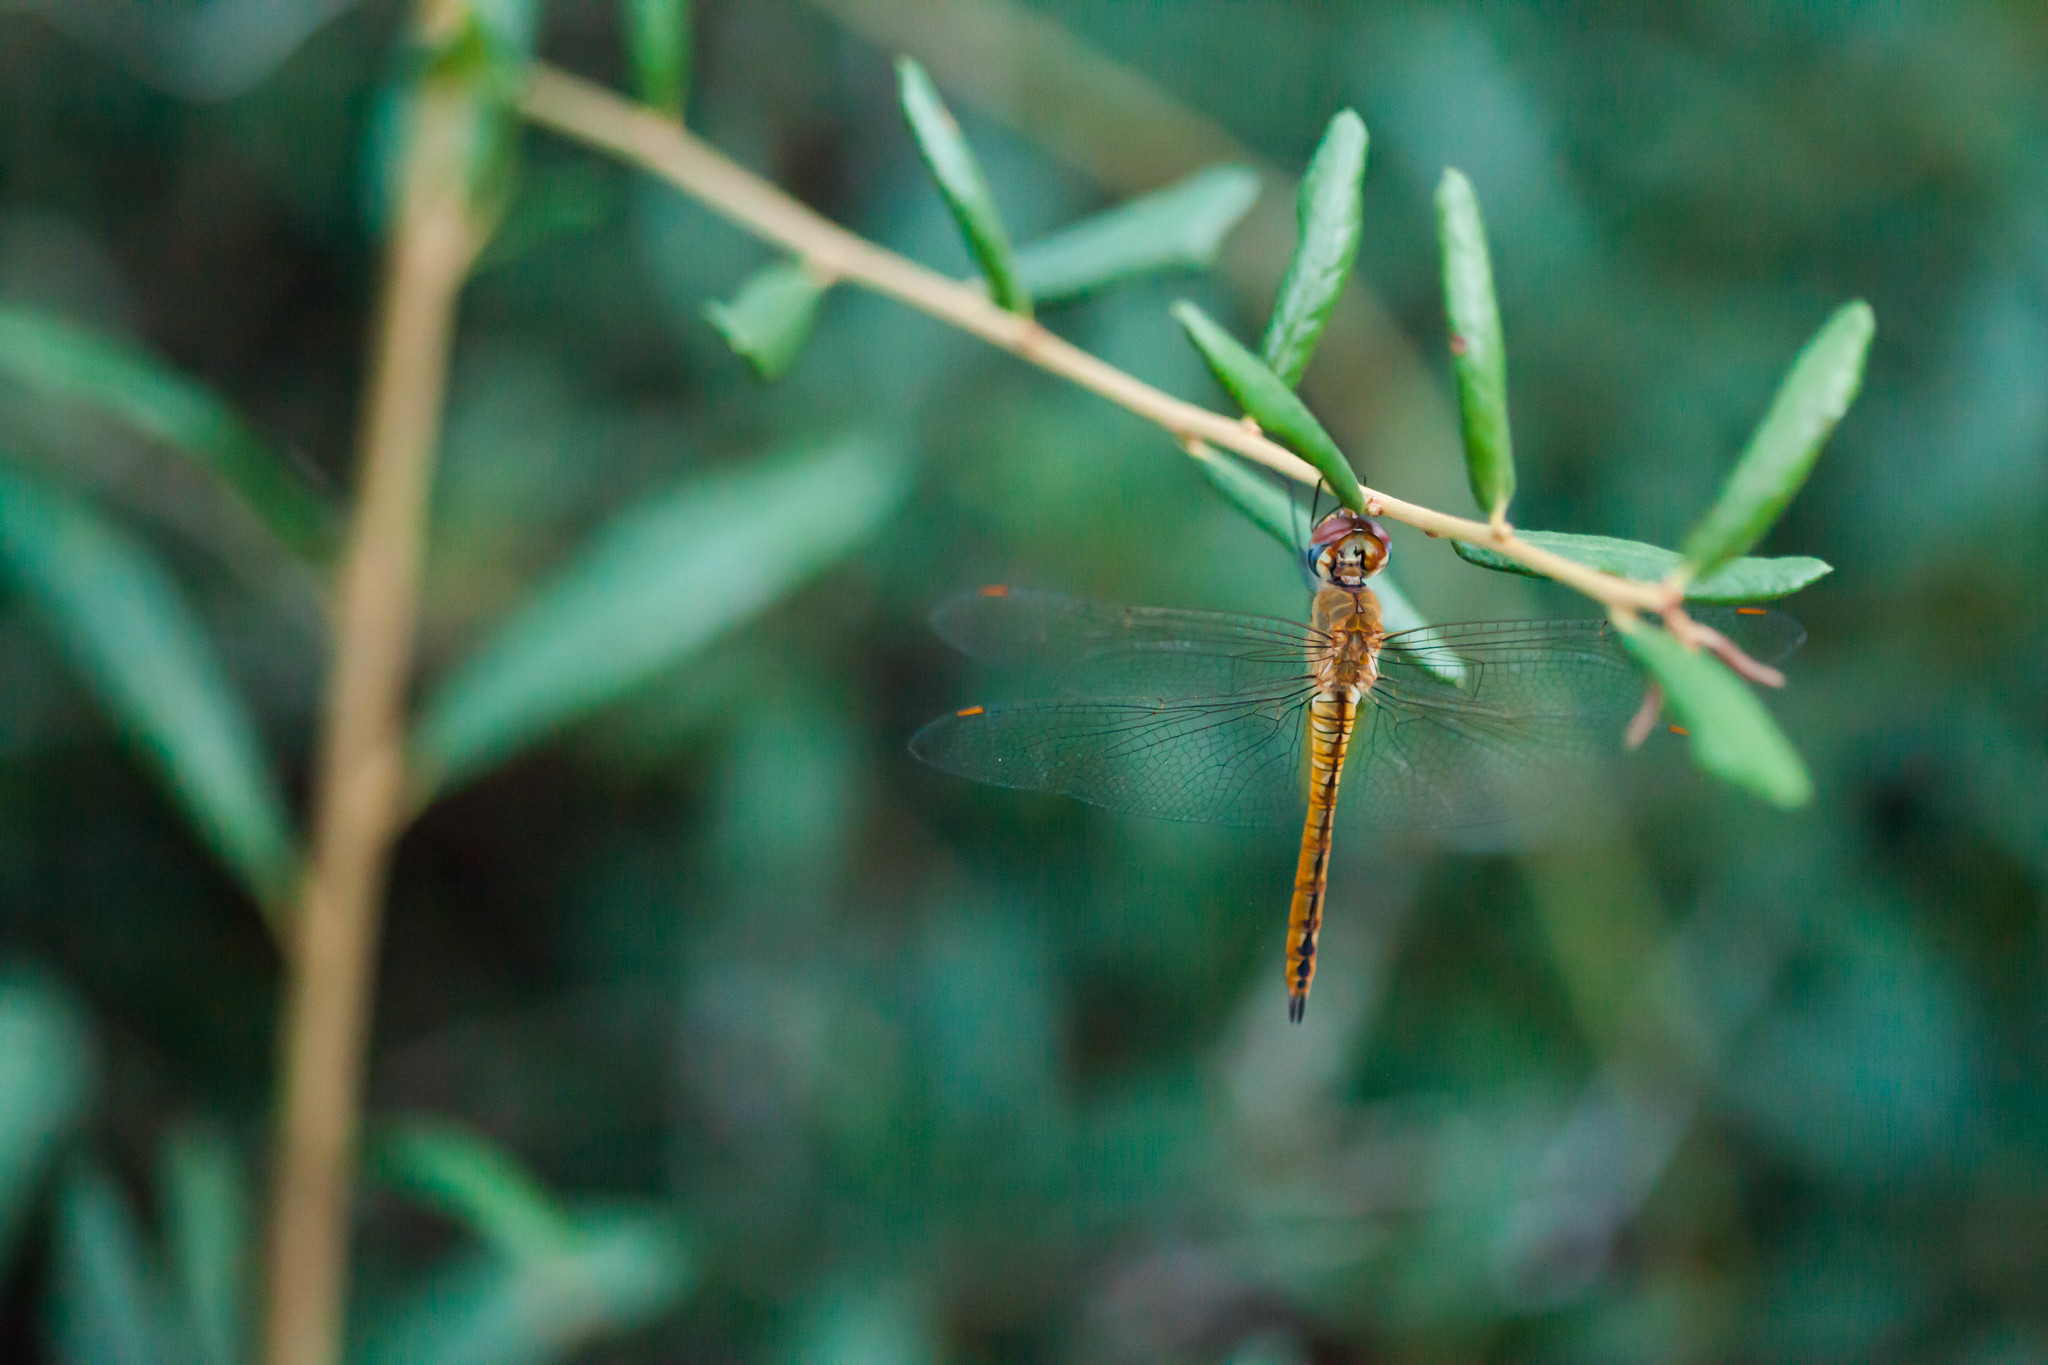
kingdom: Animalia
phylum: Arthropoda
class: Insecta
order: Odonata
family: Libellulidae
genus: Pantala
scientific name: Pantala flavescens
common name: Wandering glider
